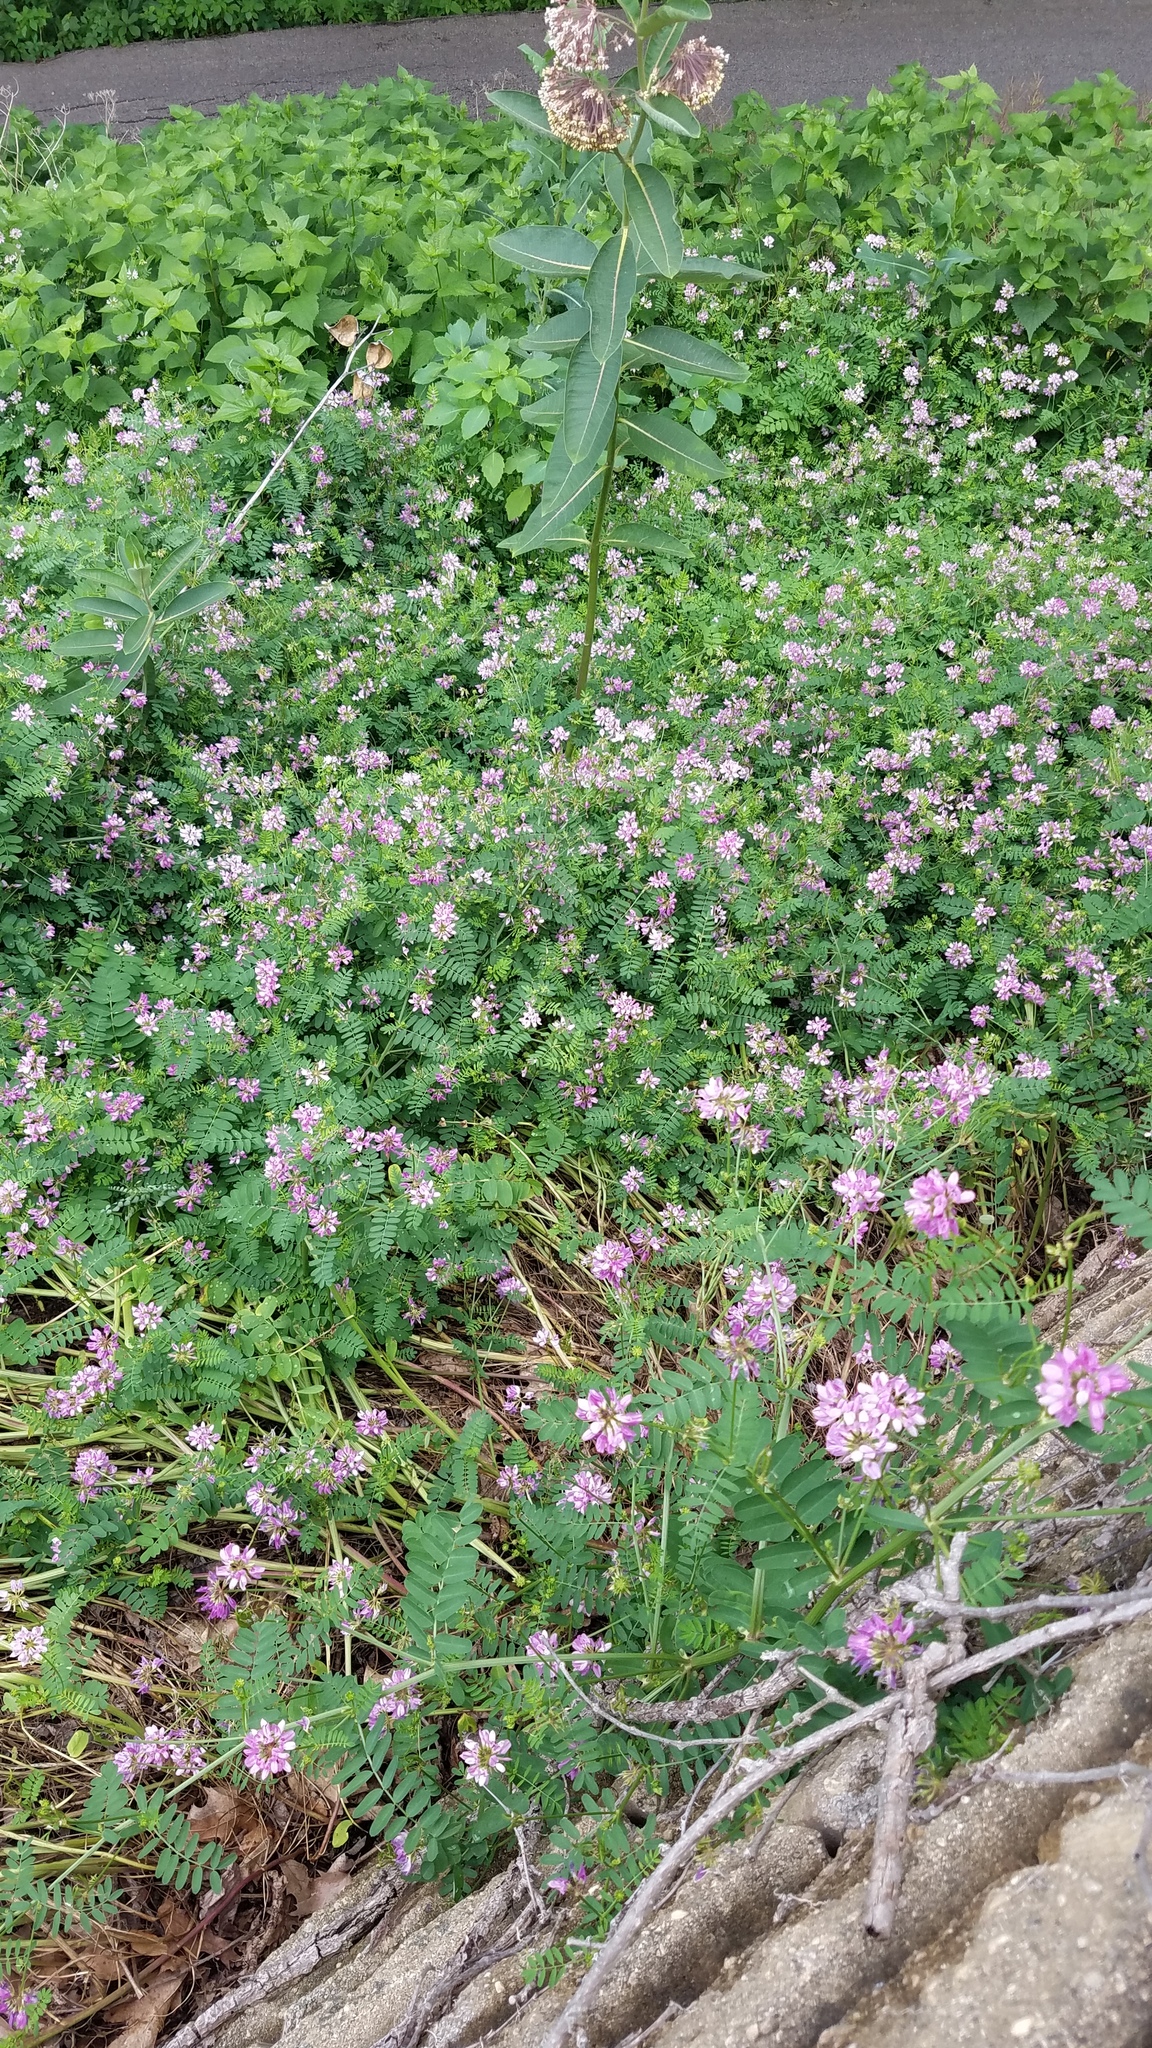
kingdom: Plantae
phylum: Tracheophyta
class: Magnoliopsida
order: Fabales
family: Fabaceae
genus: Coronilla
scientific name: Coronilla varia
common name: Crownvetch
